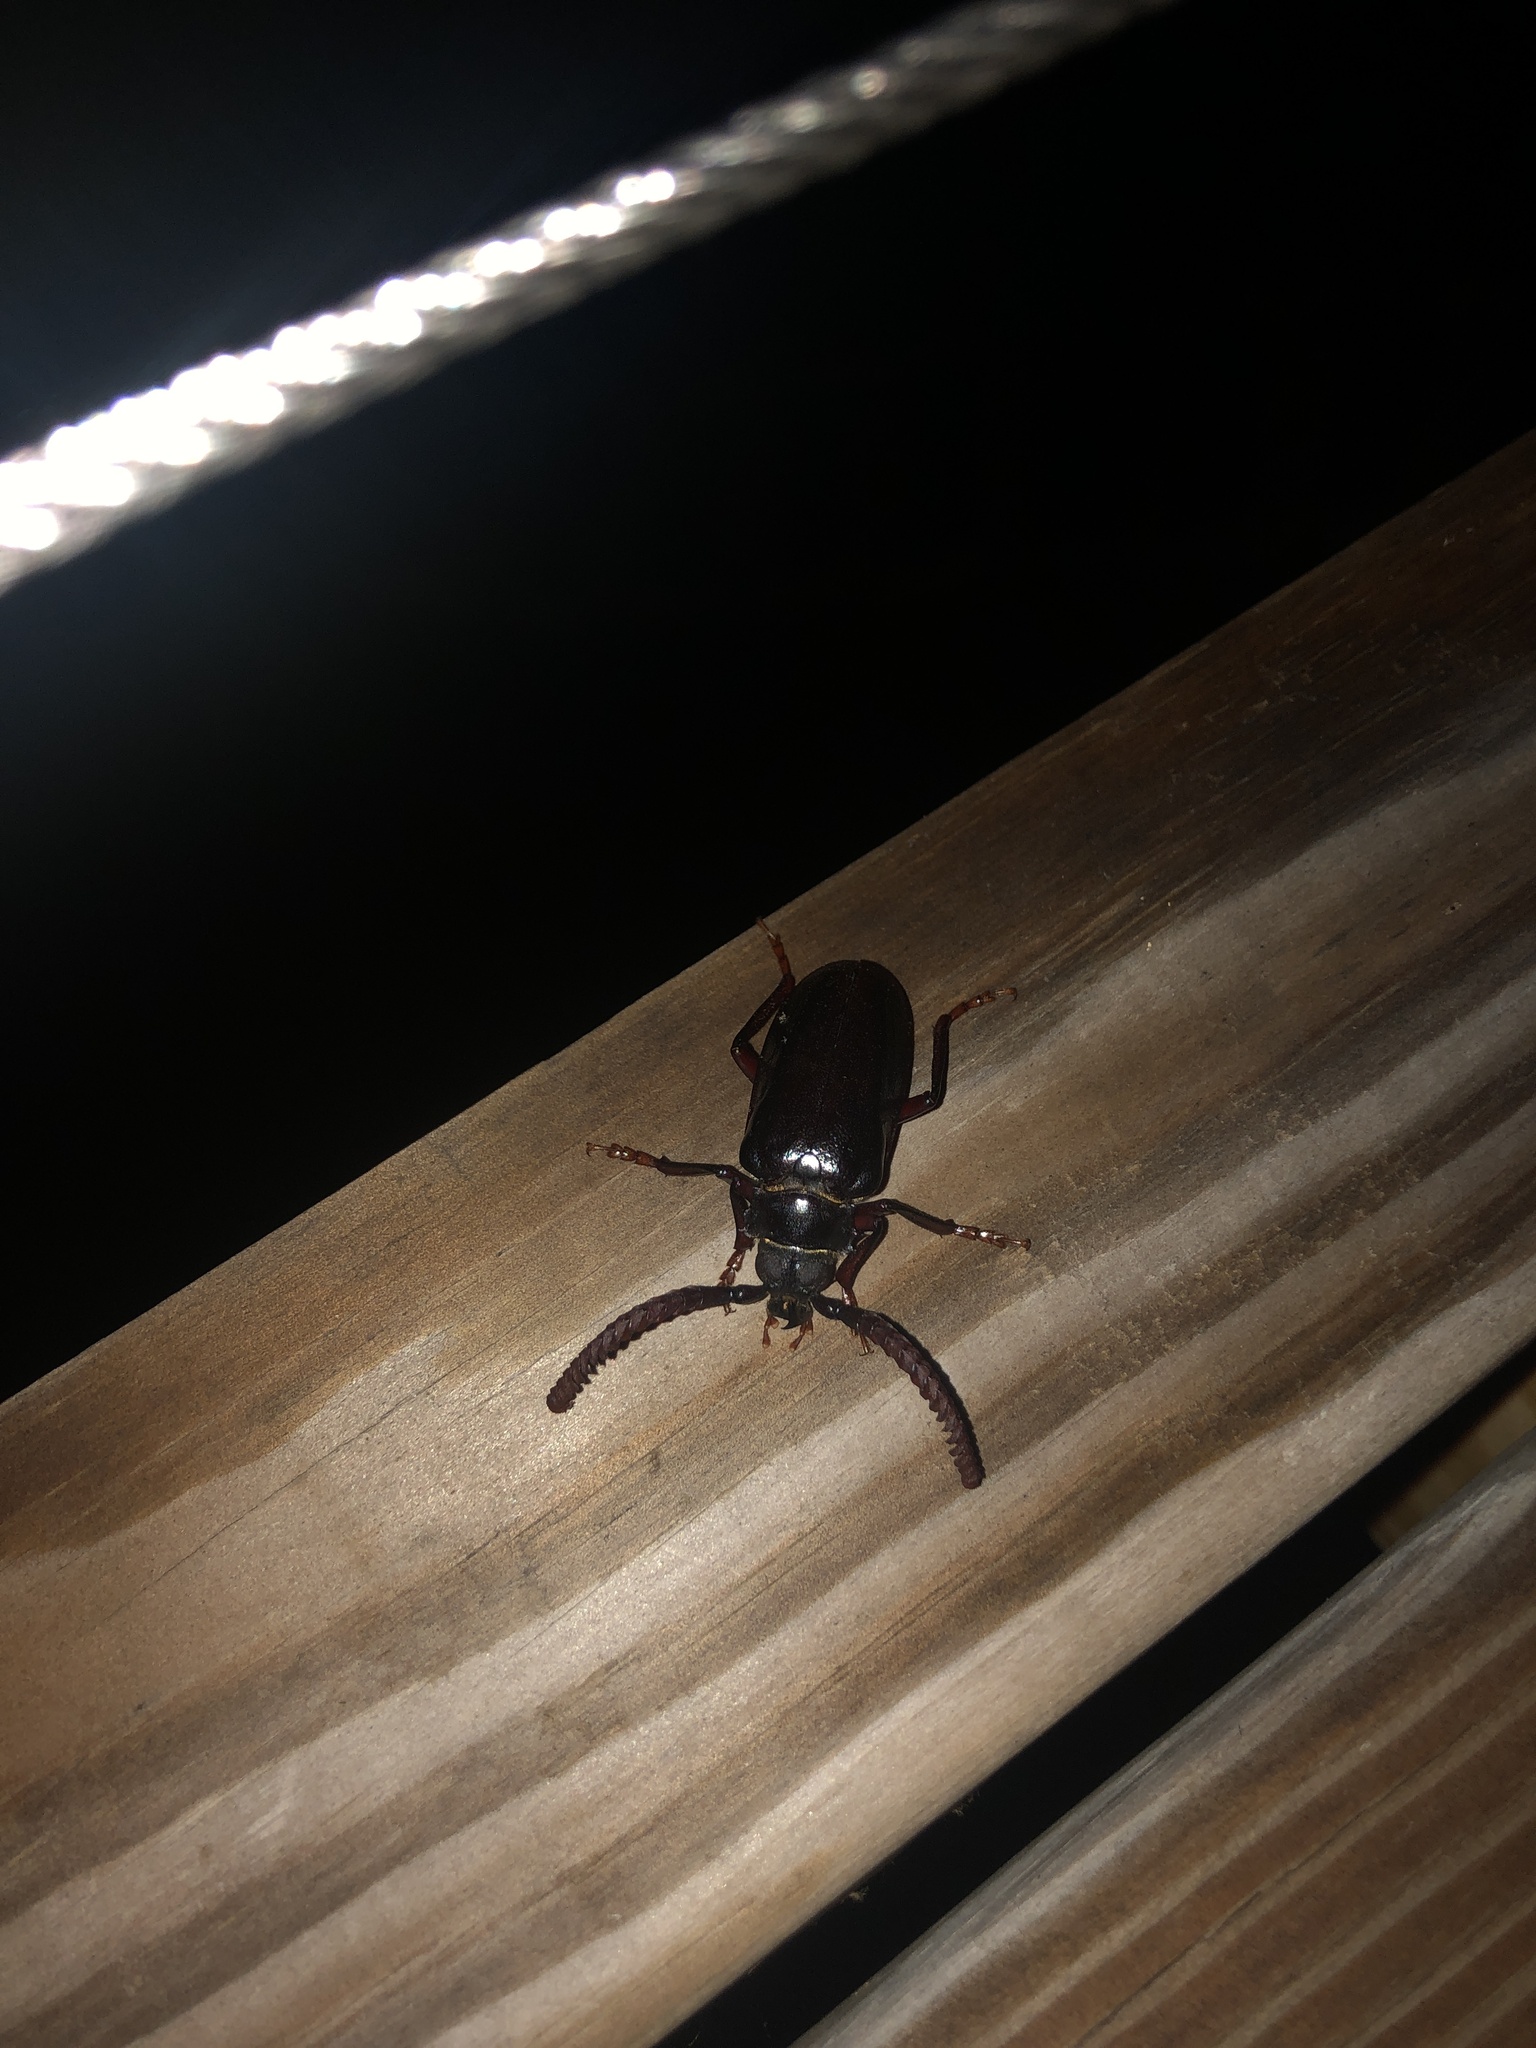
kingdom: Animalia
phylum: Arthropoda
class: Insecta
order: Coleoptera
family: Cerambycidae
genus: Prionus
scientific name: Prionus imbricornis
